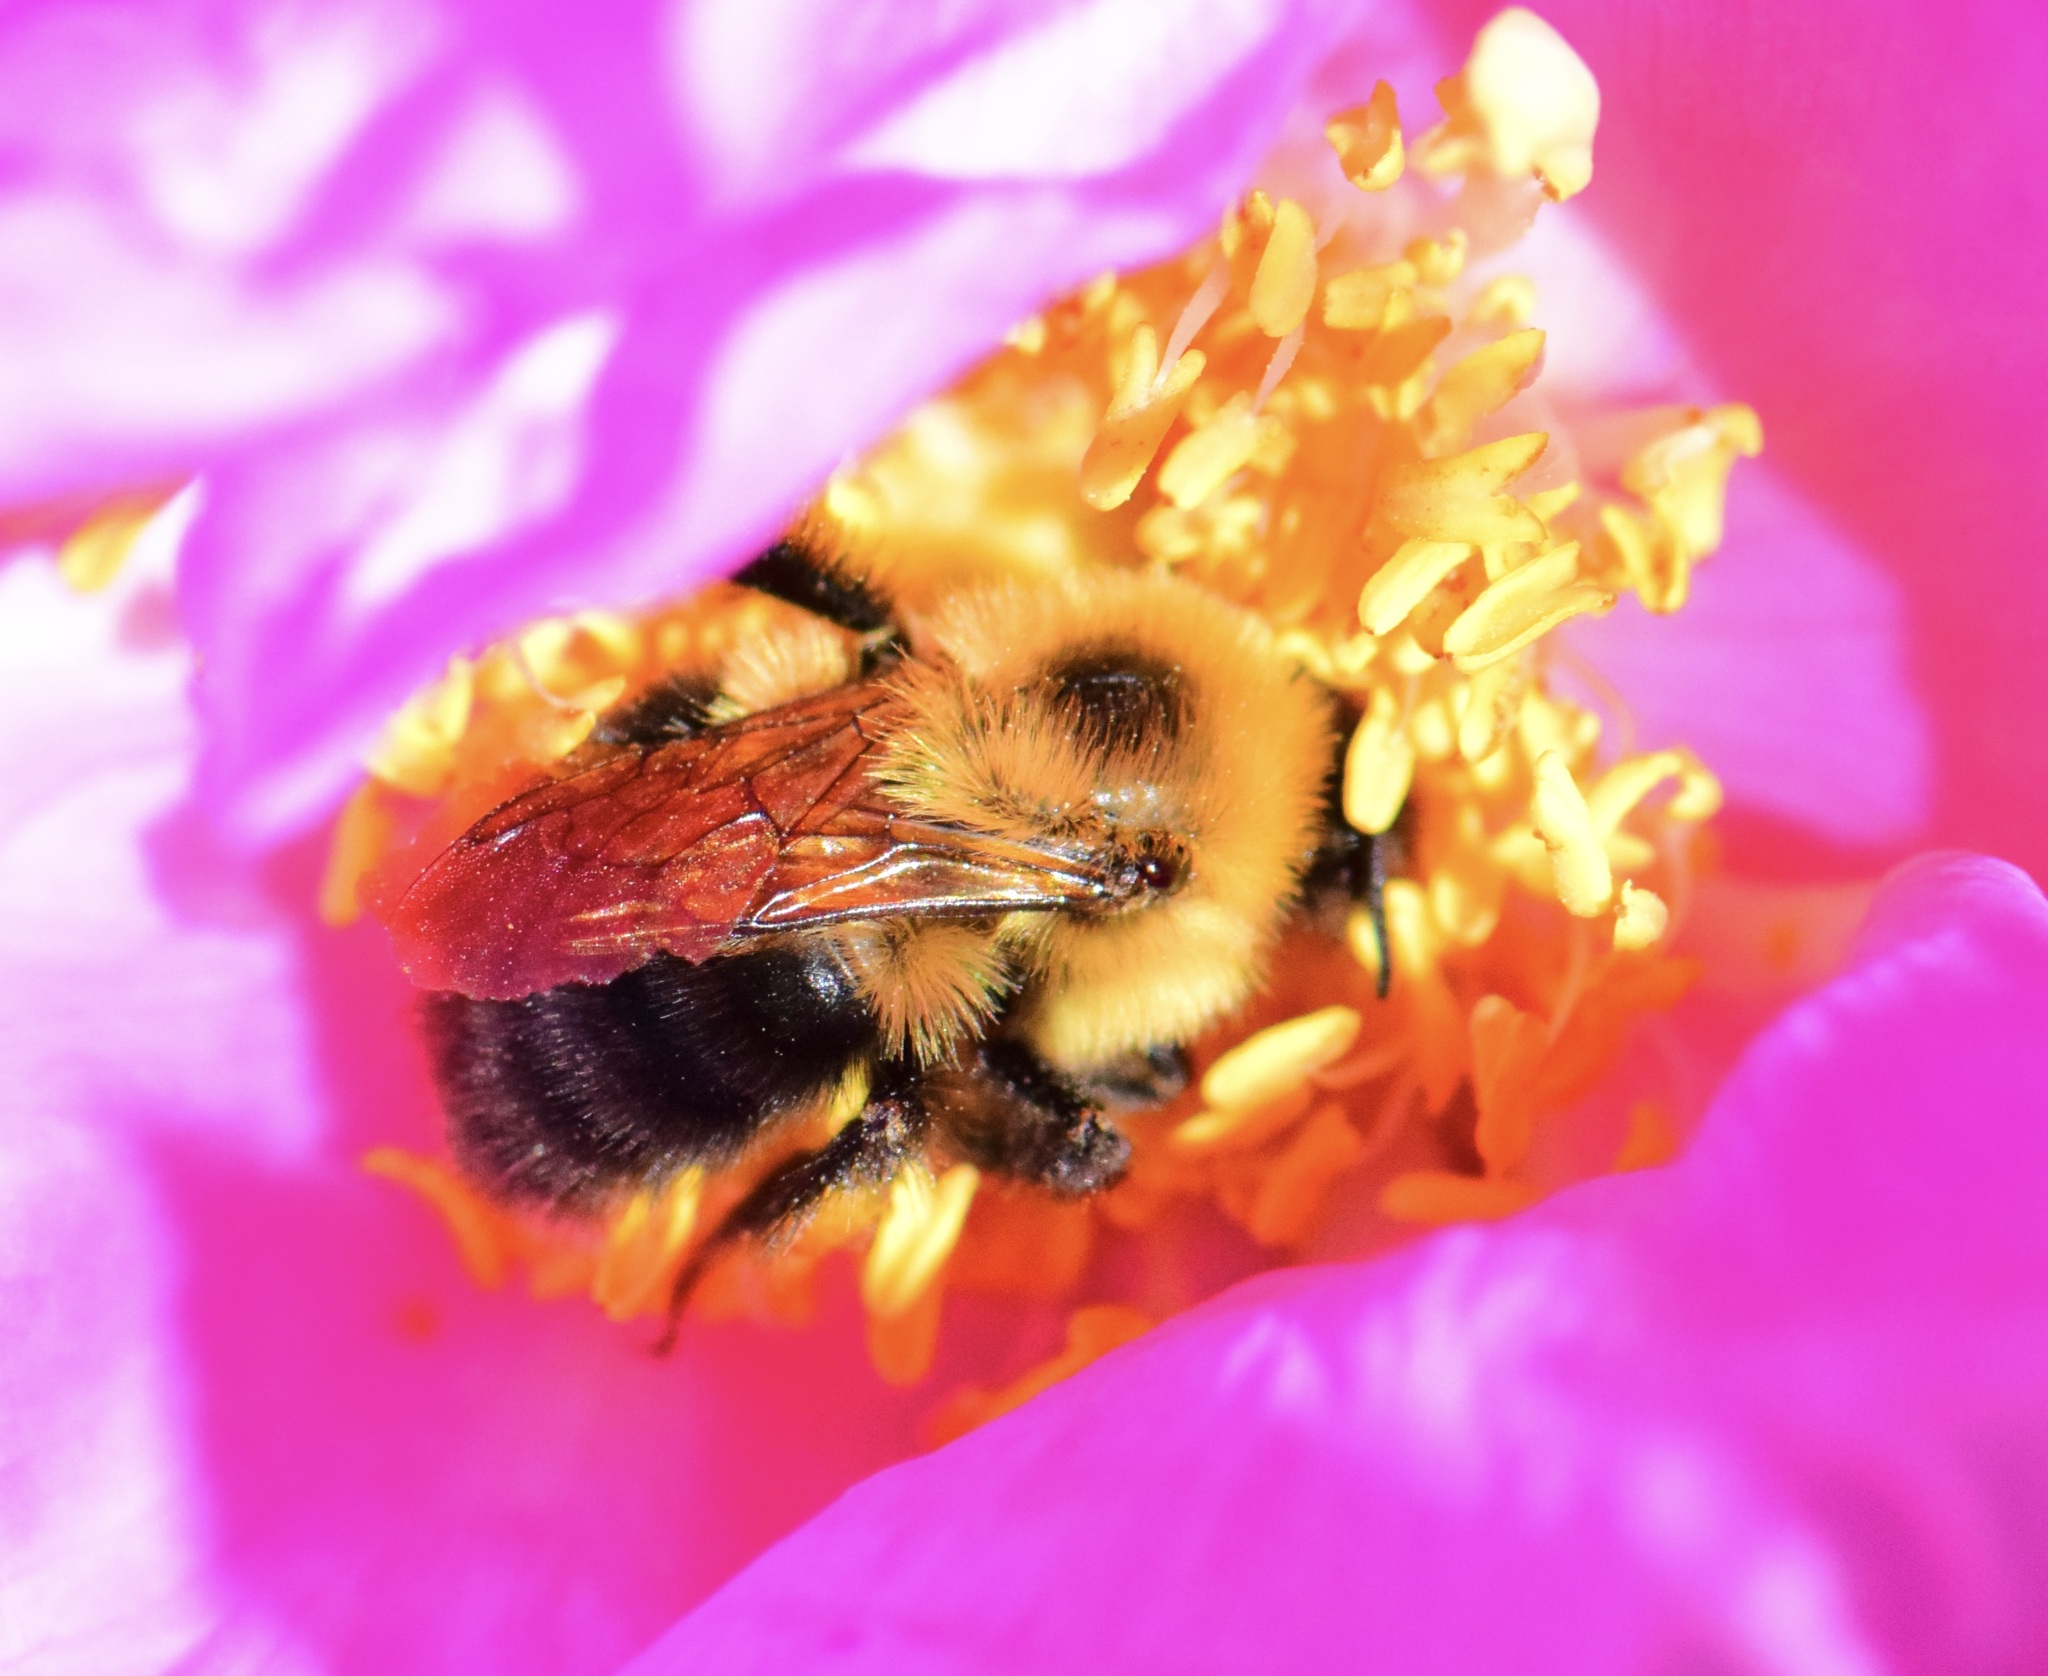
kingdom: Animalia
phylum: Arthropoda
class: Insecta
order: Hymenoptera
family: Apidae
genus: Bombus
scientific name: Bombus bimaculatus
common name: Two-spotted bumble bee
